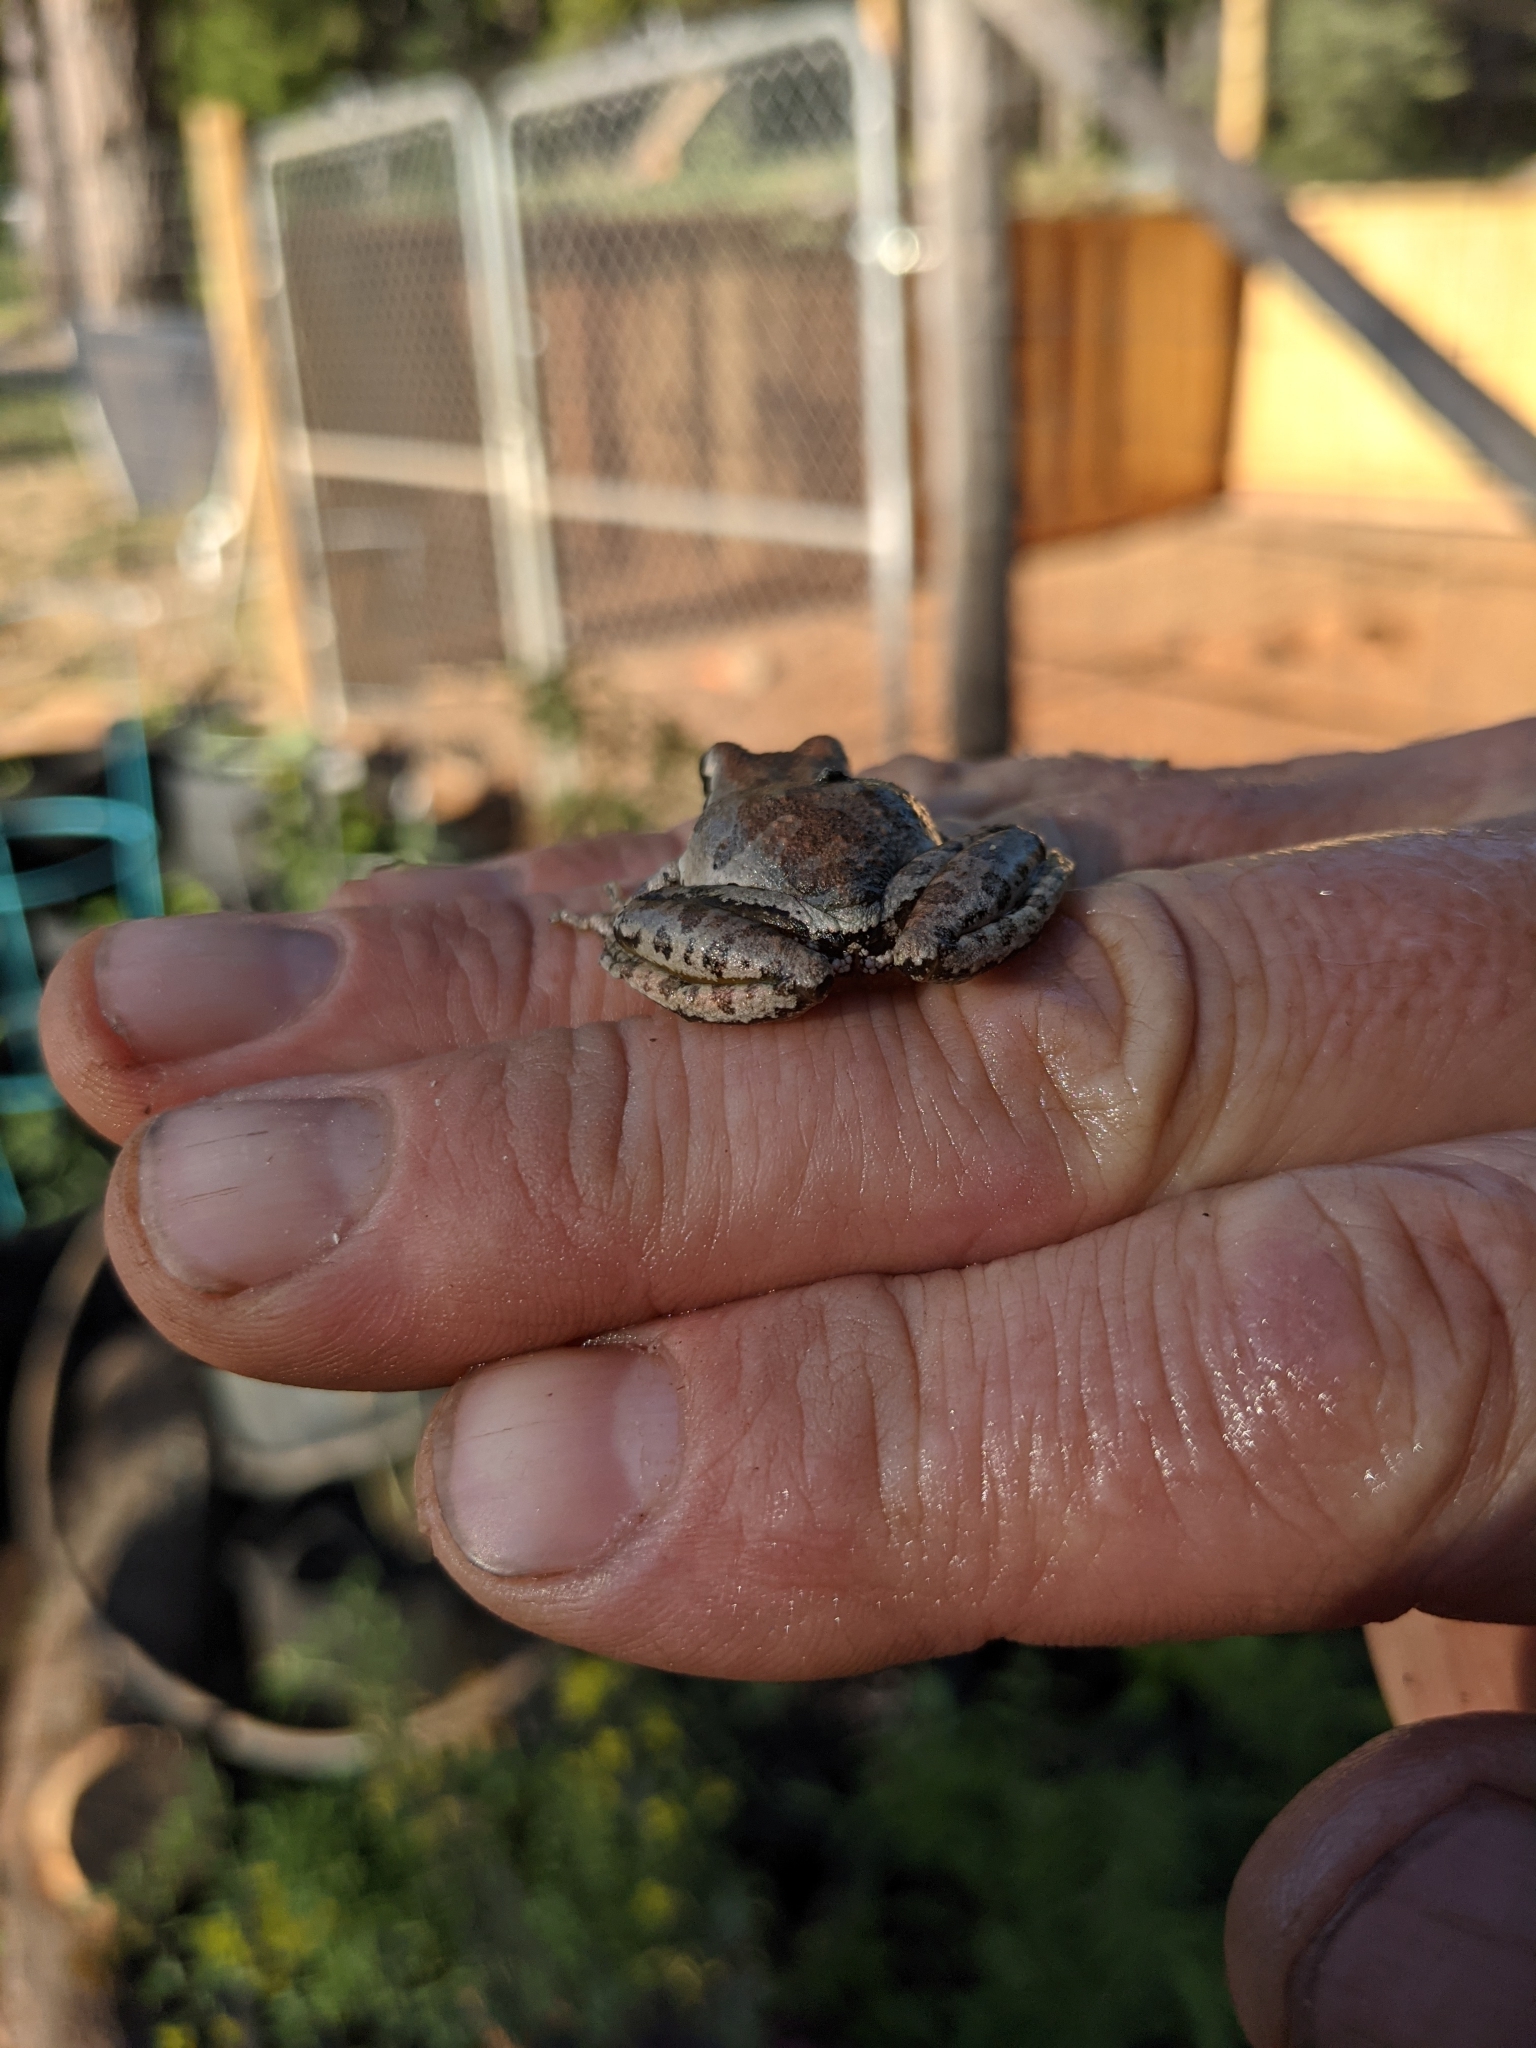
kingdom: Animalia
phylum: Chordata
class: Amphibia
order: Anura
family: Hylidae
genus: Pseudacris
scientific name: Pseudacris regilla
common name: Pacific chorus frog
